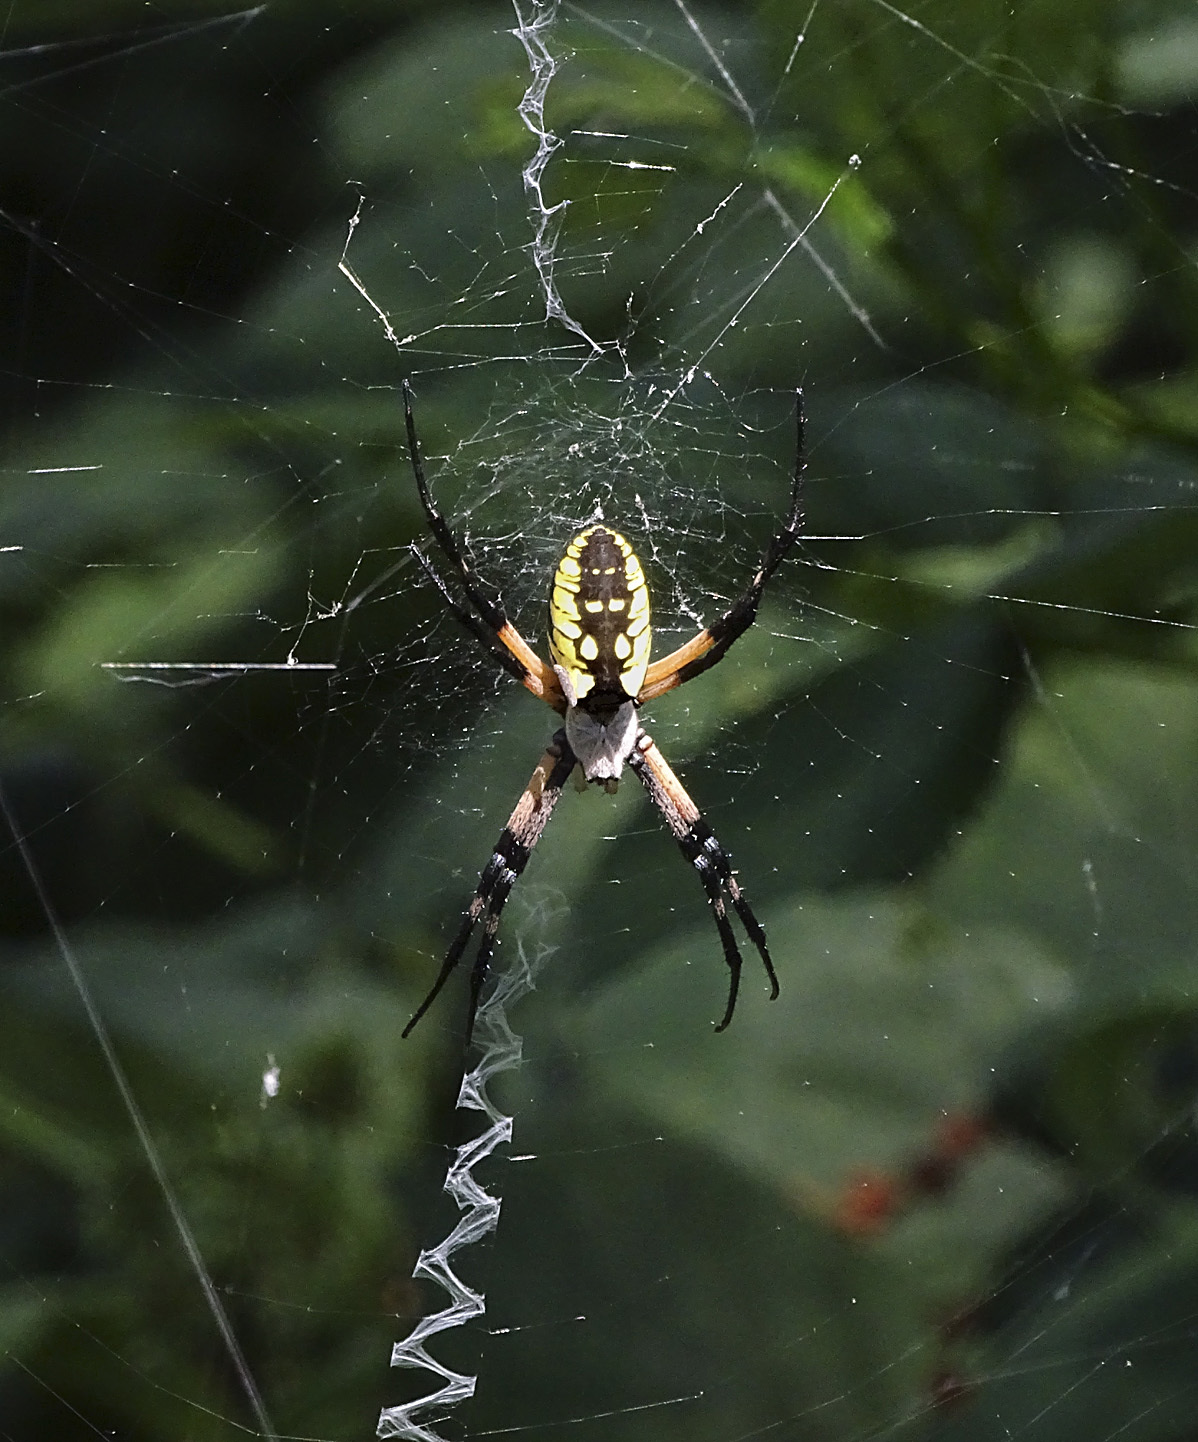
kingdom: Animalia
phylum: Arthropoda
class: Arachnida
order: Araneae
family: Araneidae
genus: Argiope
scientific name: Argiope aurantia
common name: Orb weavers
